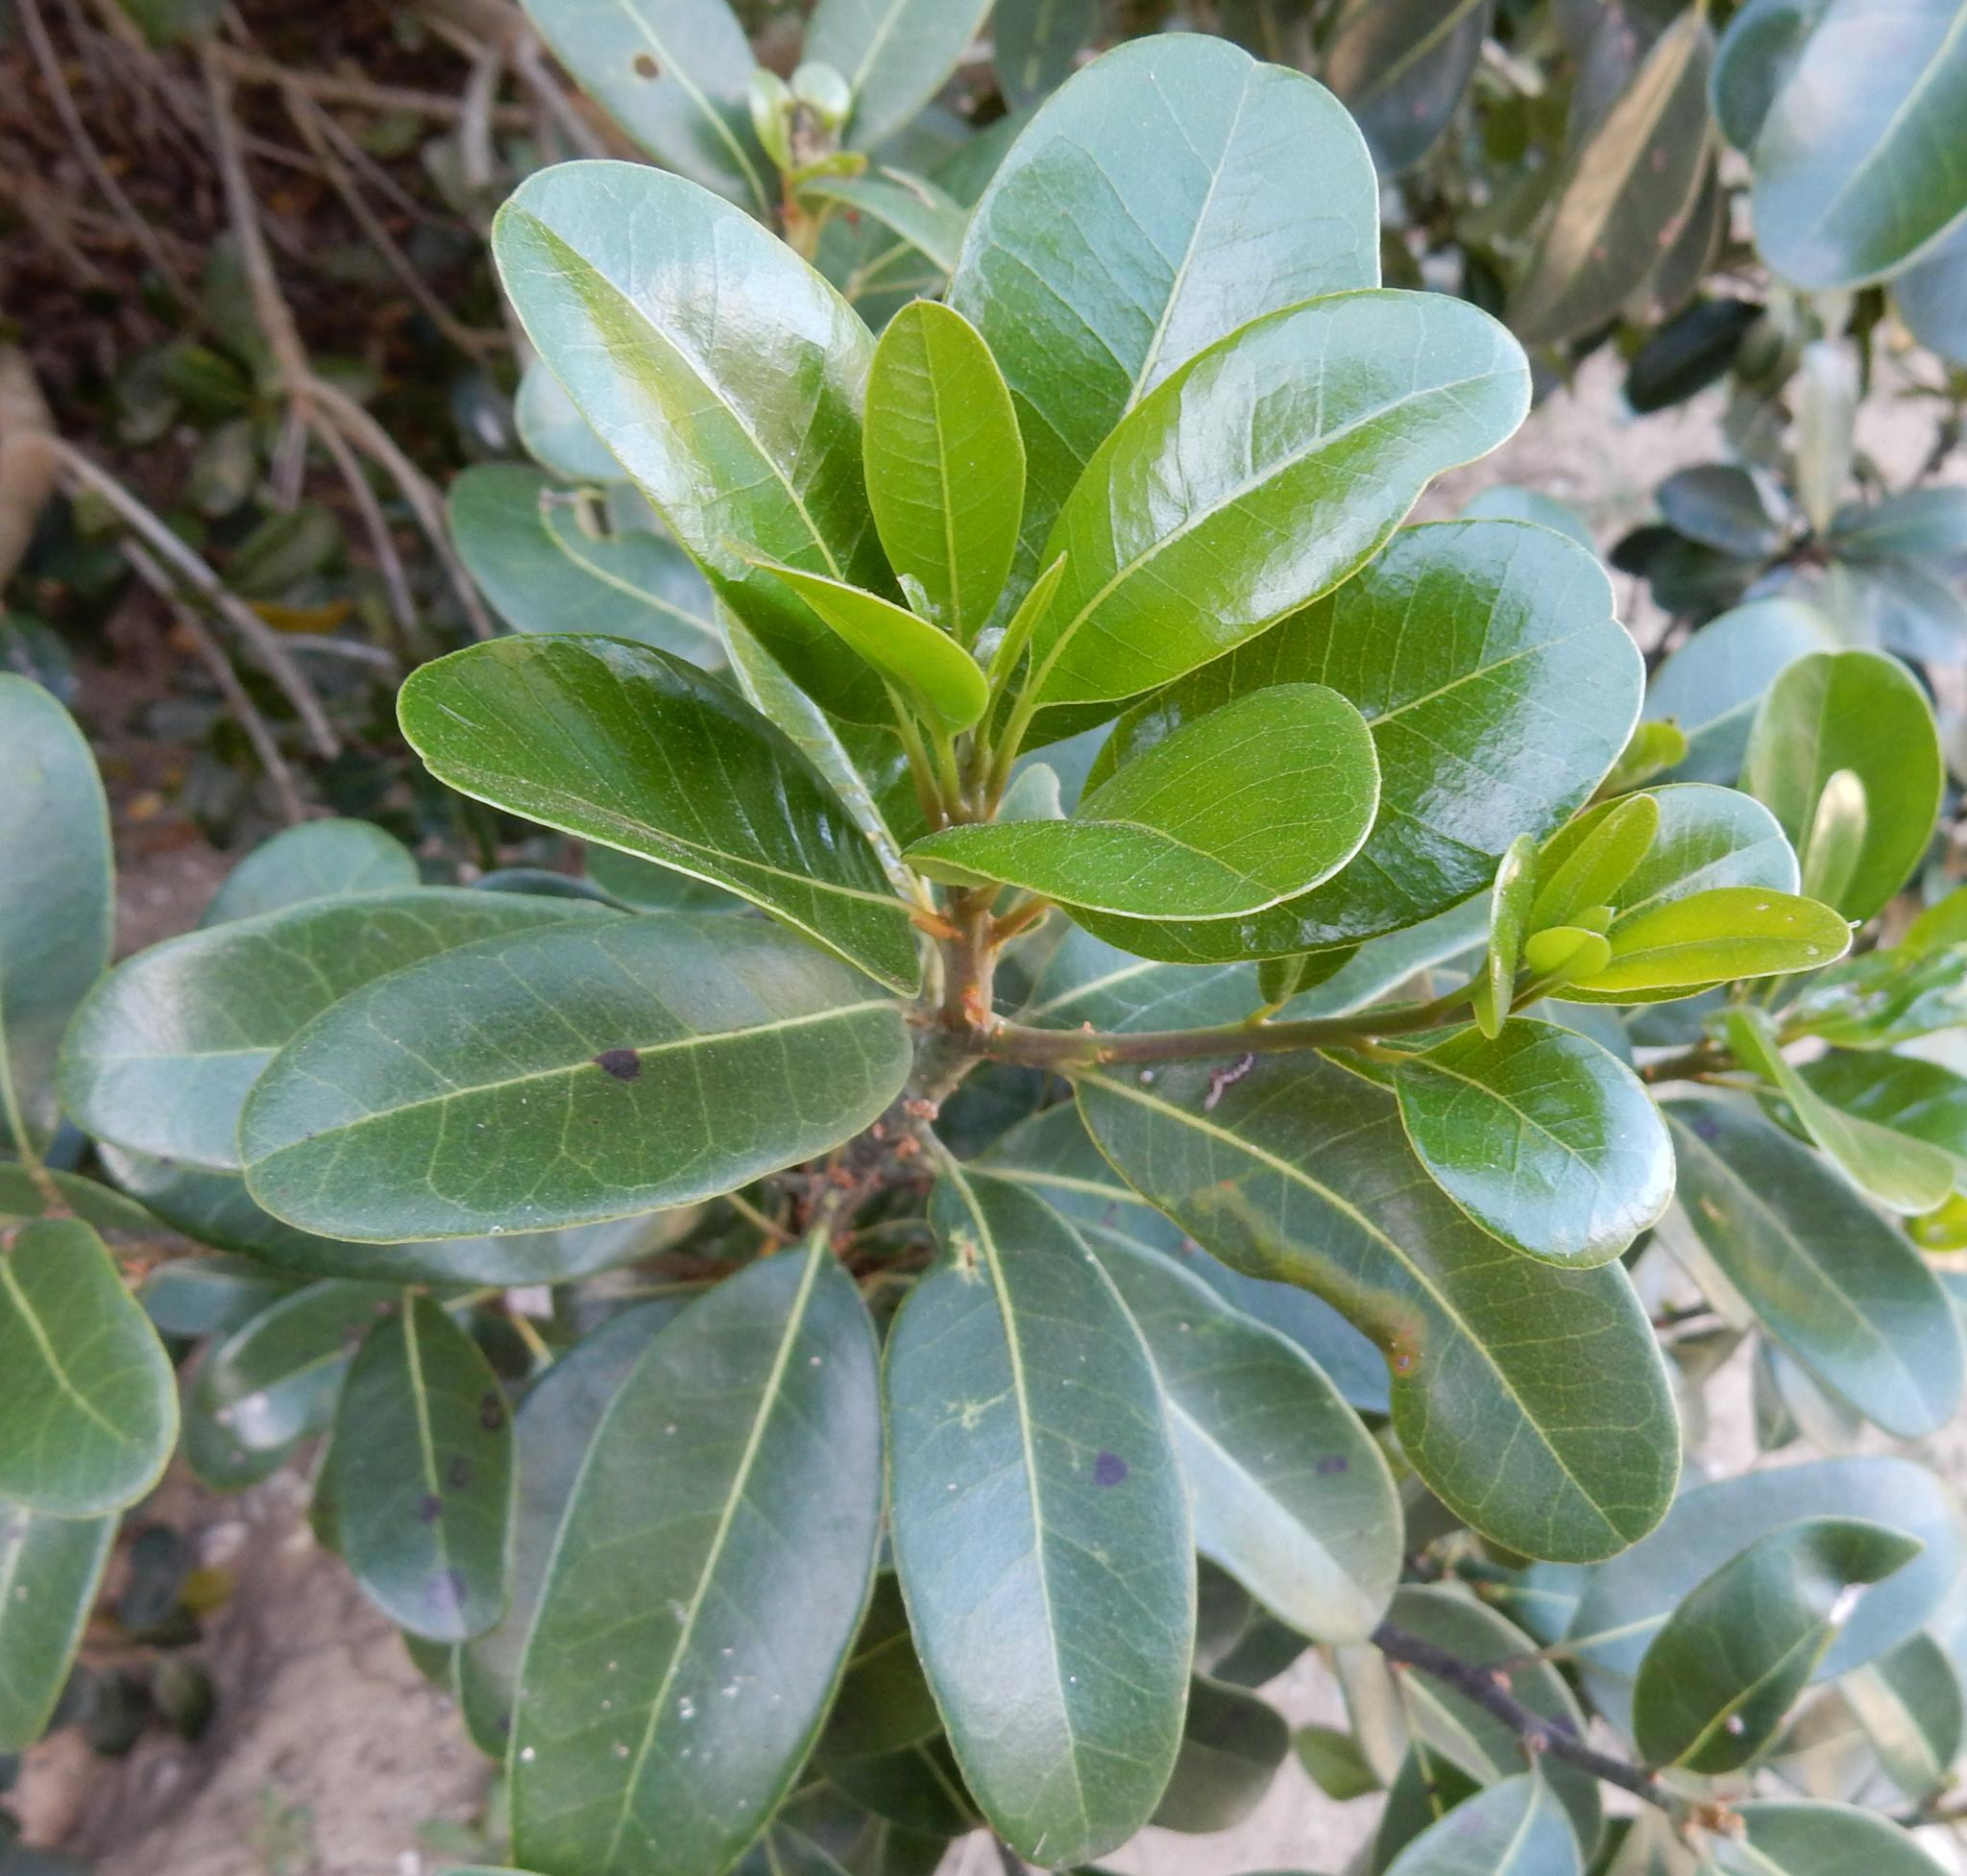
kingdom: Plantae
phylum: Tracheophyta
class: Magnoliopsida
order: Ericales
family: Sapotaceae
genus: Sideroxylon
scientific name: Sideroxylon inerme
